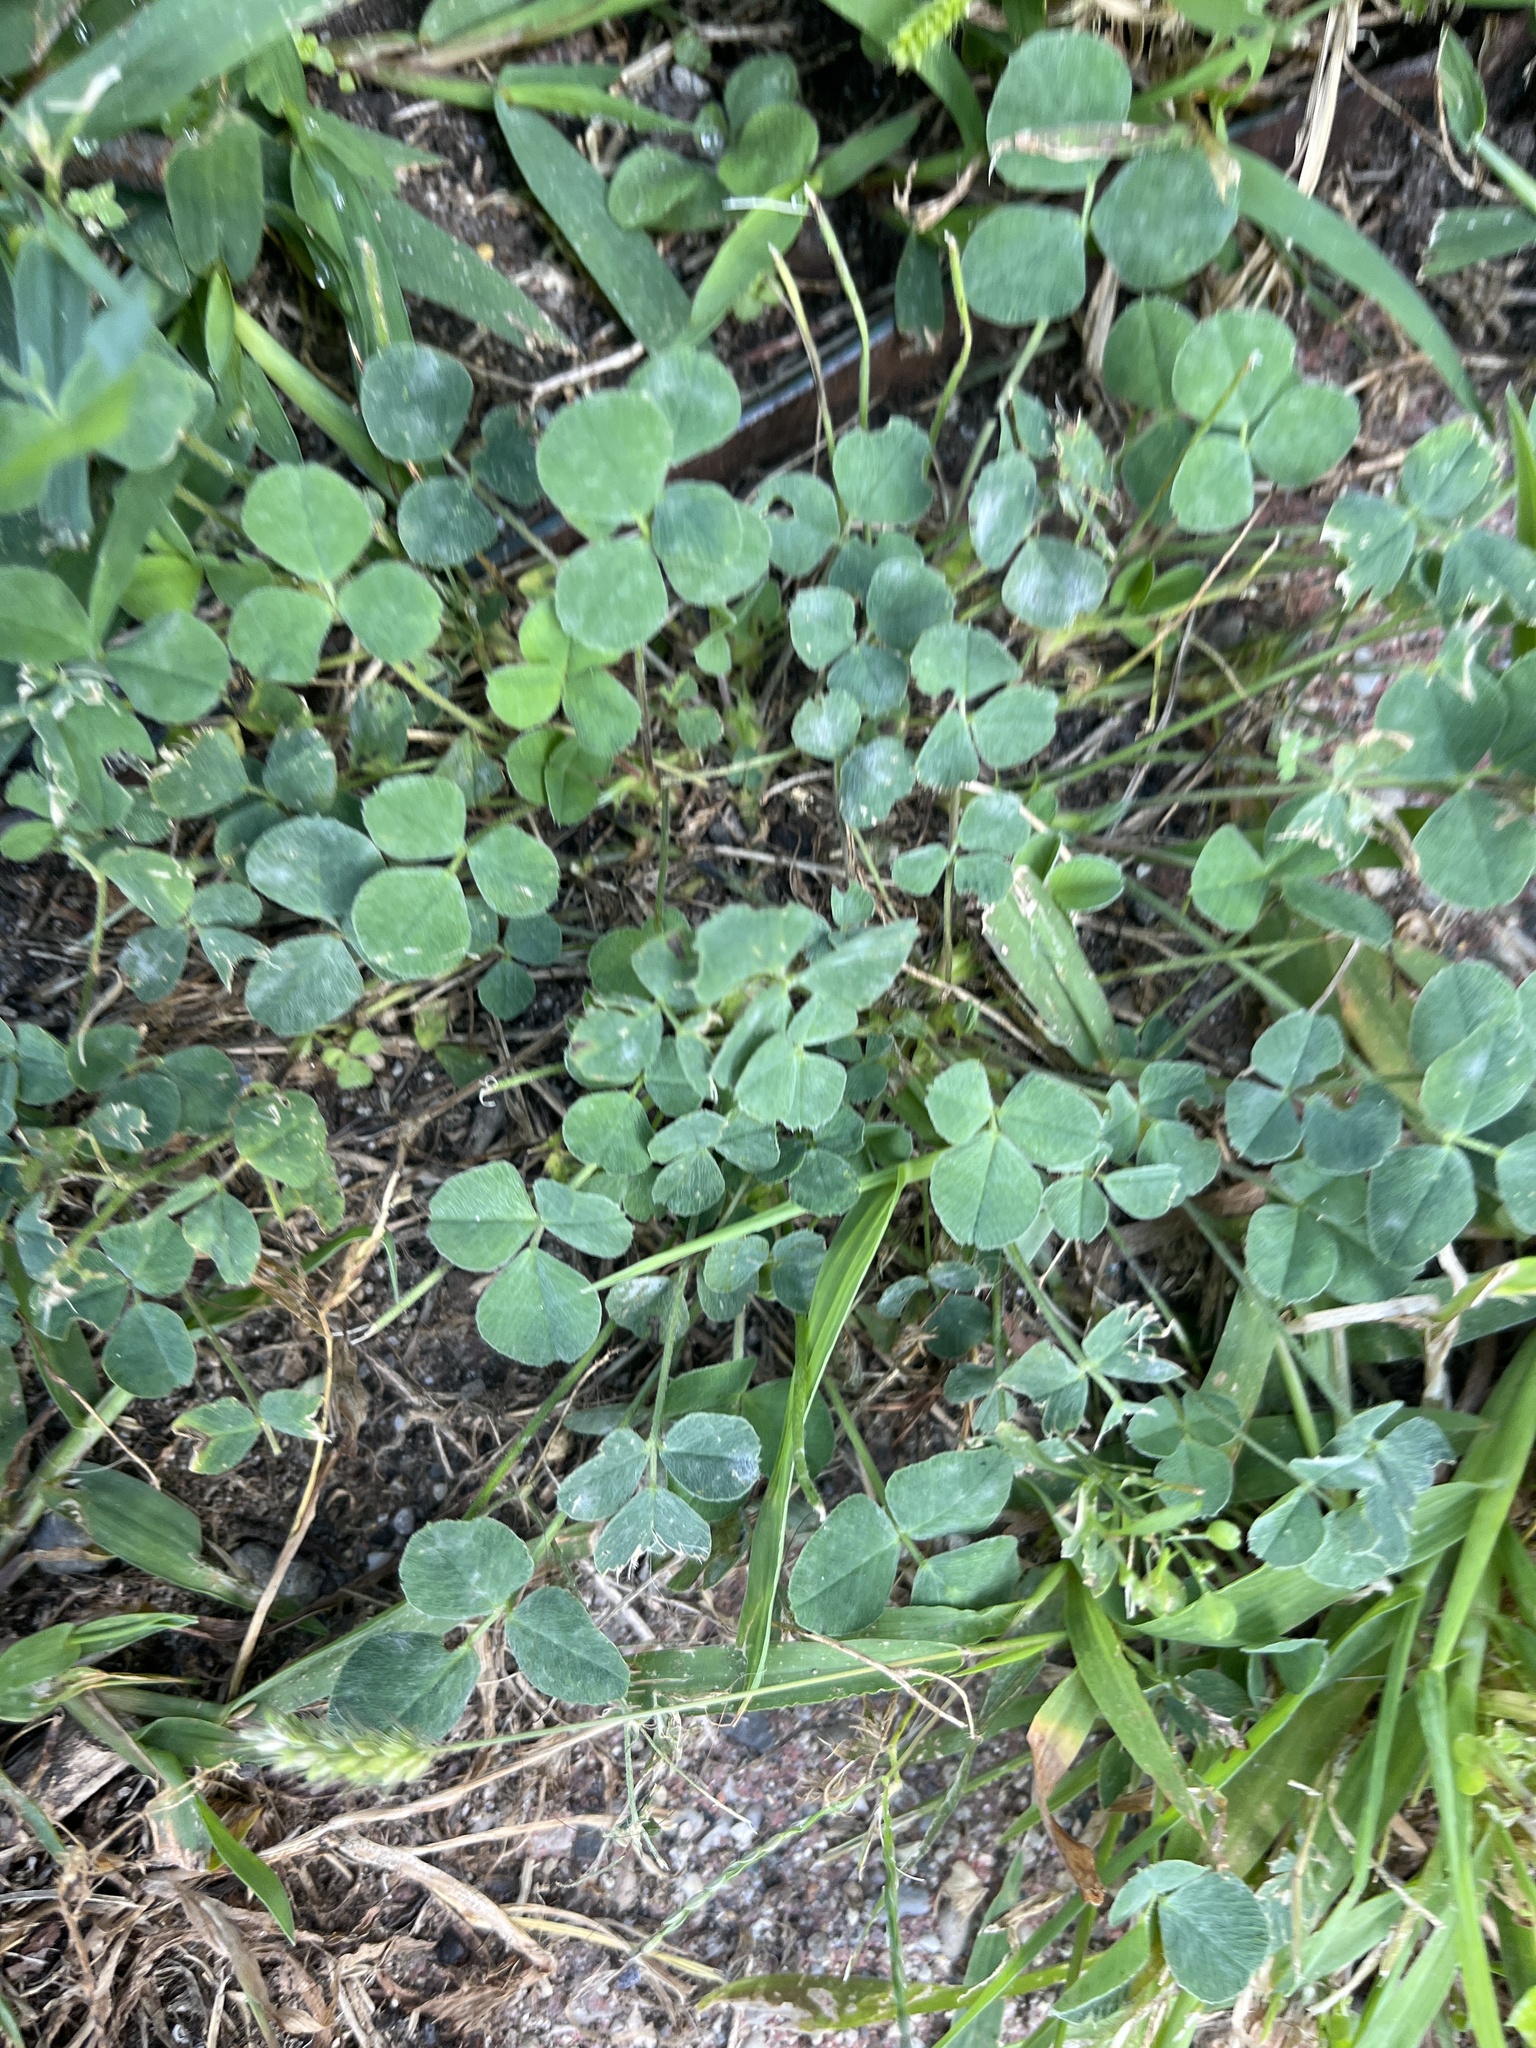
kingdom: Plantae
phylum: Tracheophyta
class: Magnoliopsida
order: Fabales
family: Fabaceae
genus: Medicago
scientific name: Medicago lupulina
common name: Black medick
